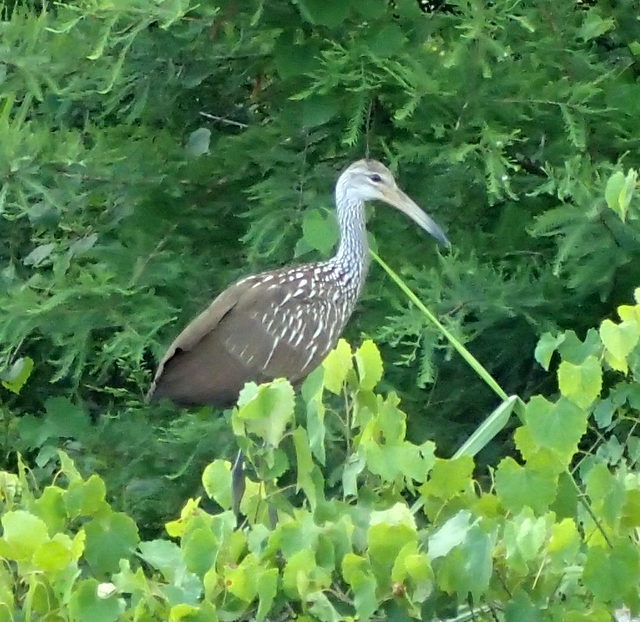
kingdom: Animalia
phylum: Chordata
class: Aves
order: Gruiformes
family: Aramidae
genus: Aramus
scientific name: Aramus guarauna
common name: Limpkin
